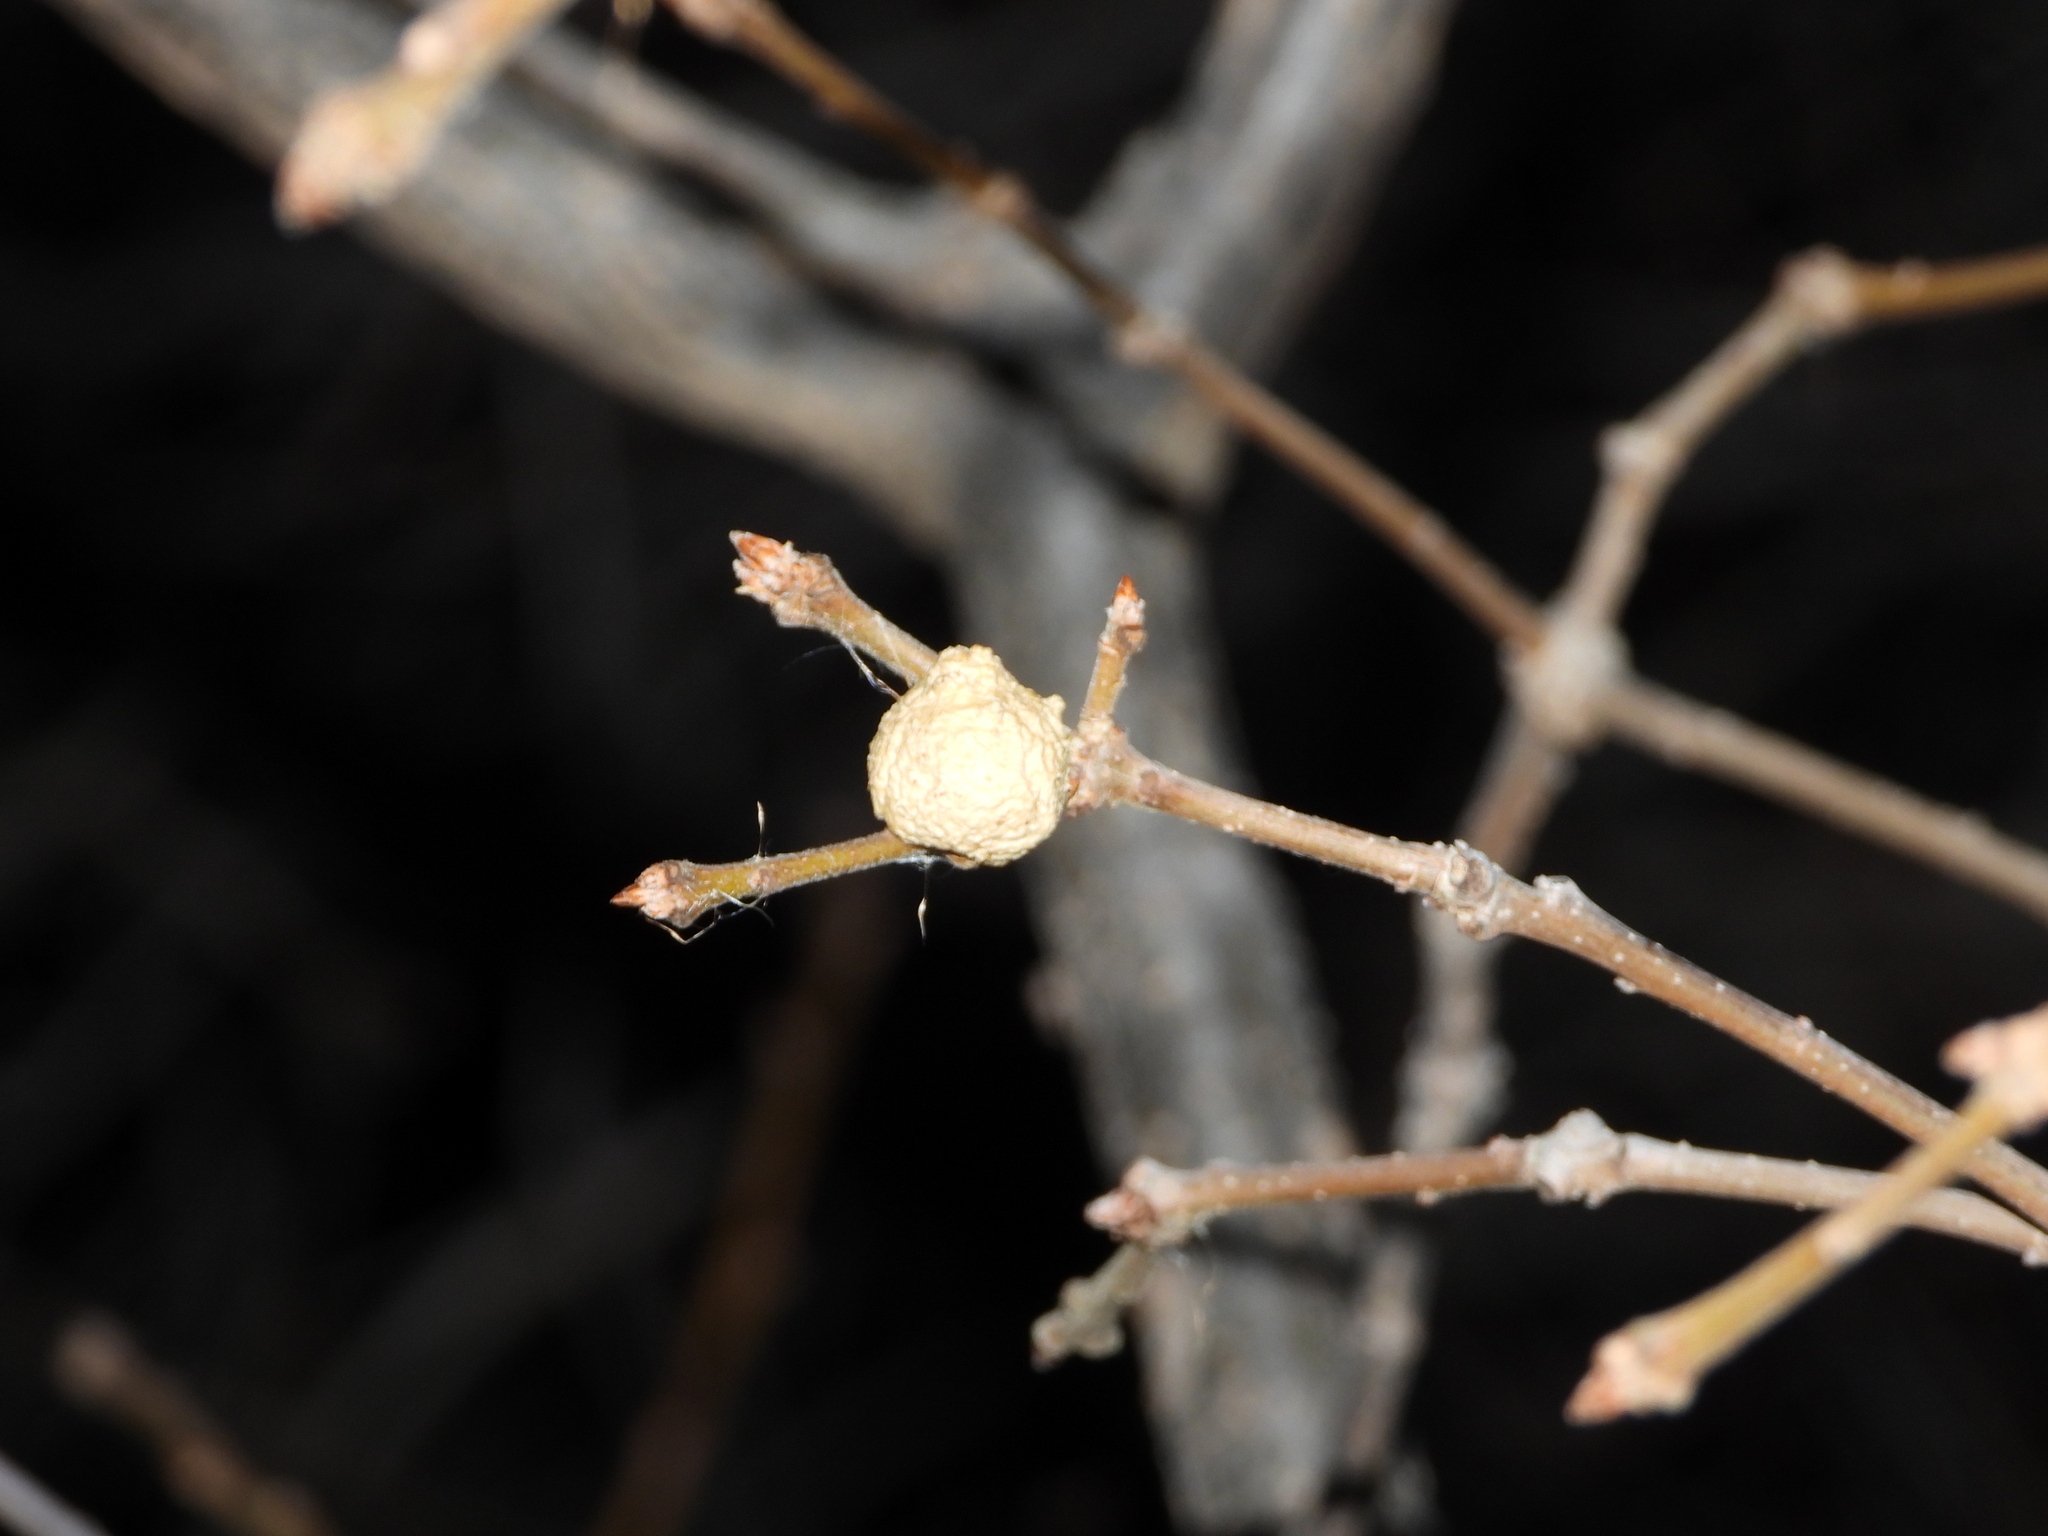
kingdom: Animalia
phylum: Arthropoda
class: Insecta
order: Hymenoptera
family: Cynipidae
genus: Disholcaspis
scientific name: Disholcaspis
